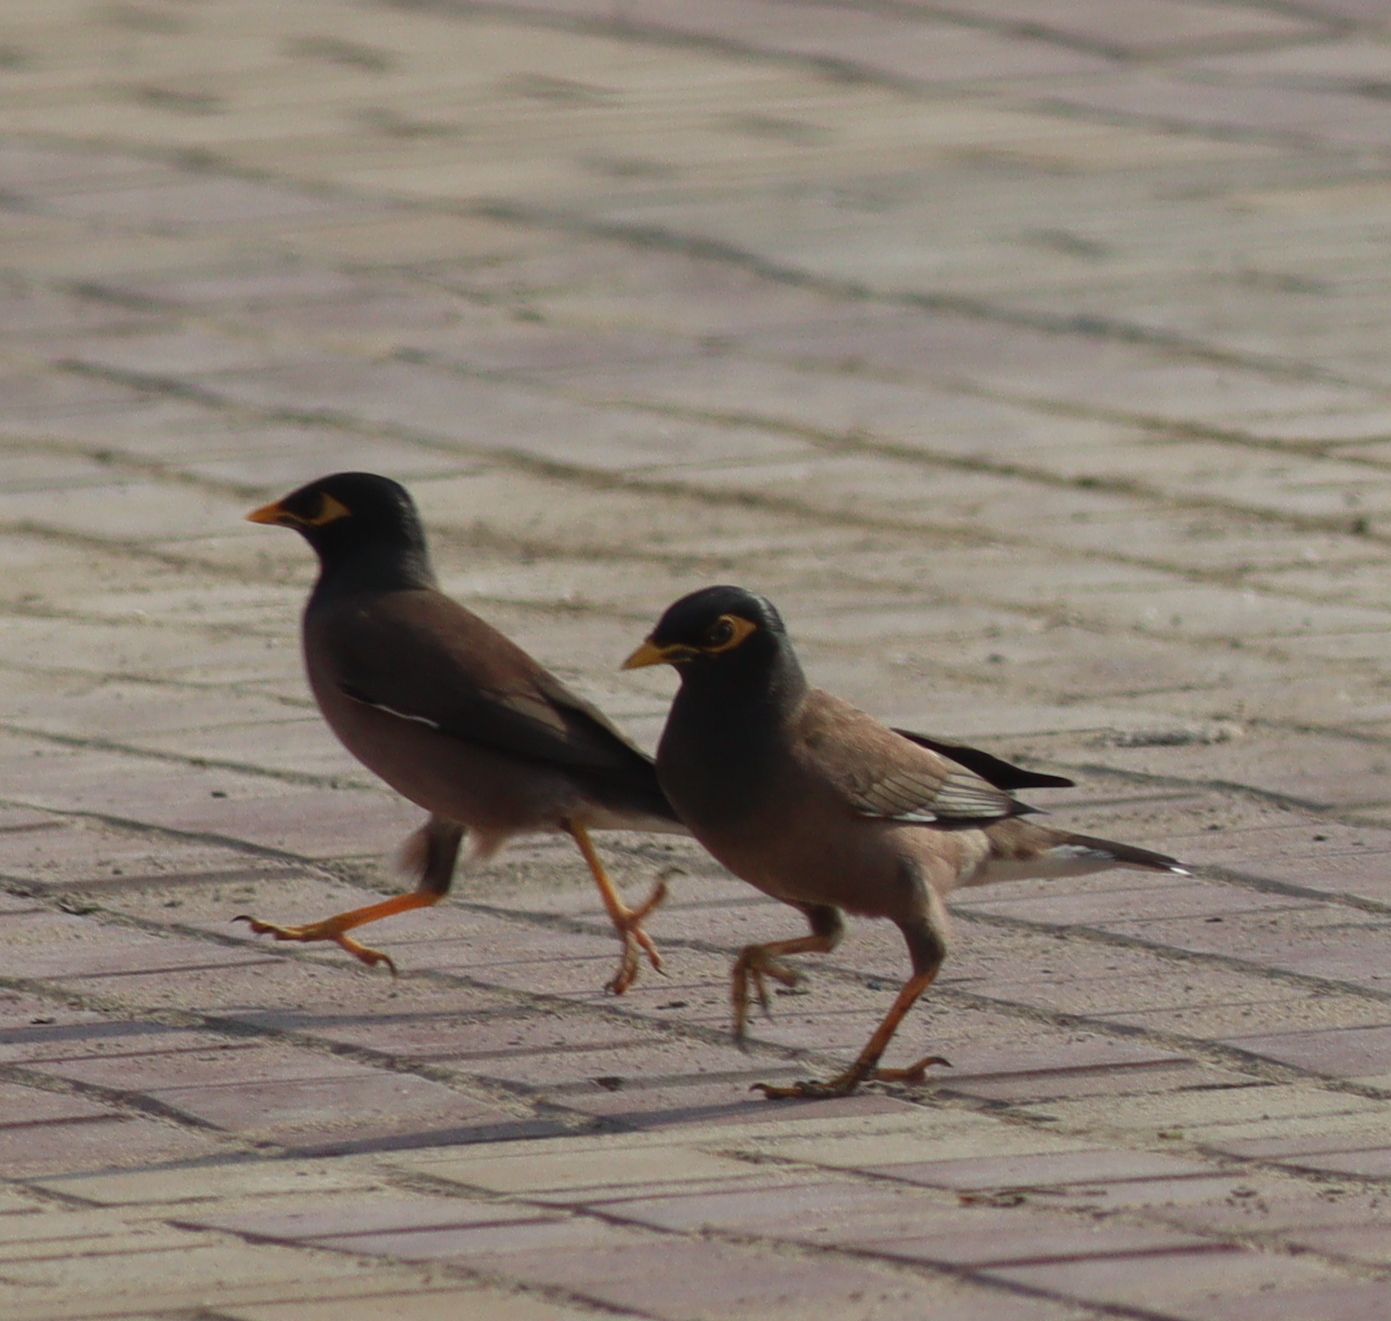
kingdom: Animalia
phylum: Chordata
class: Aves
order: Passeriformes
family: Sturnidae
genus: Acridotheres
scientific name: Acridotheres tristis
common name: Common myna
